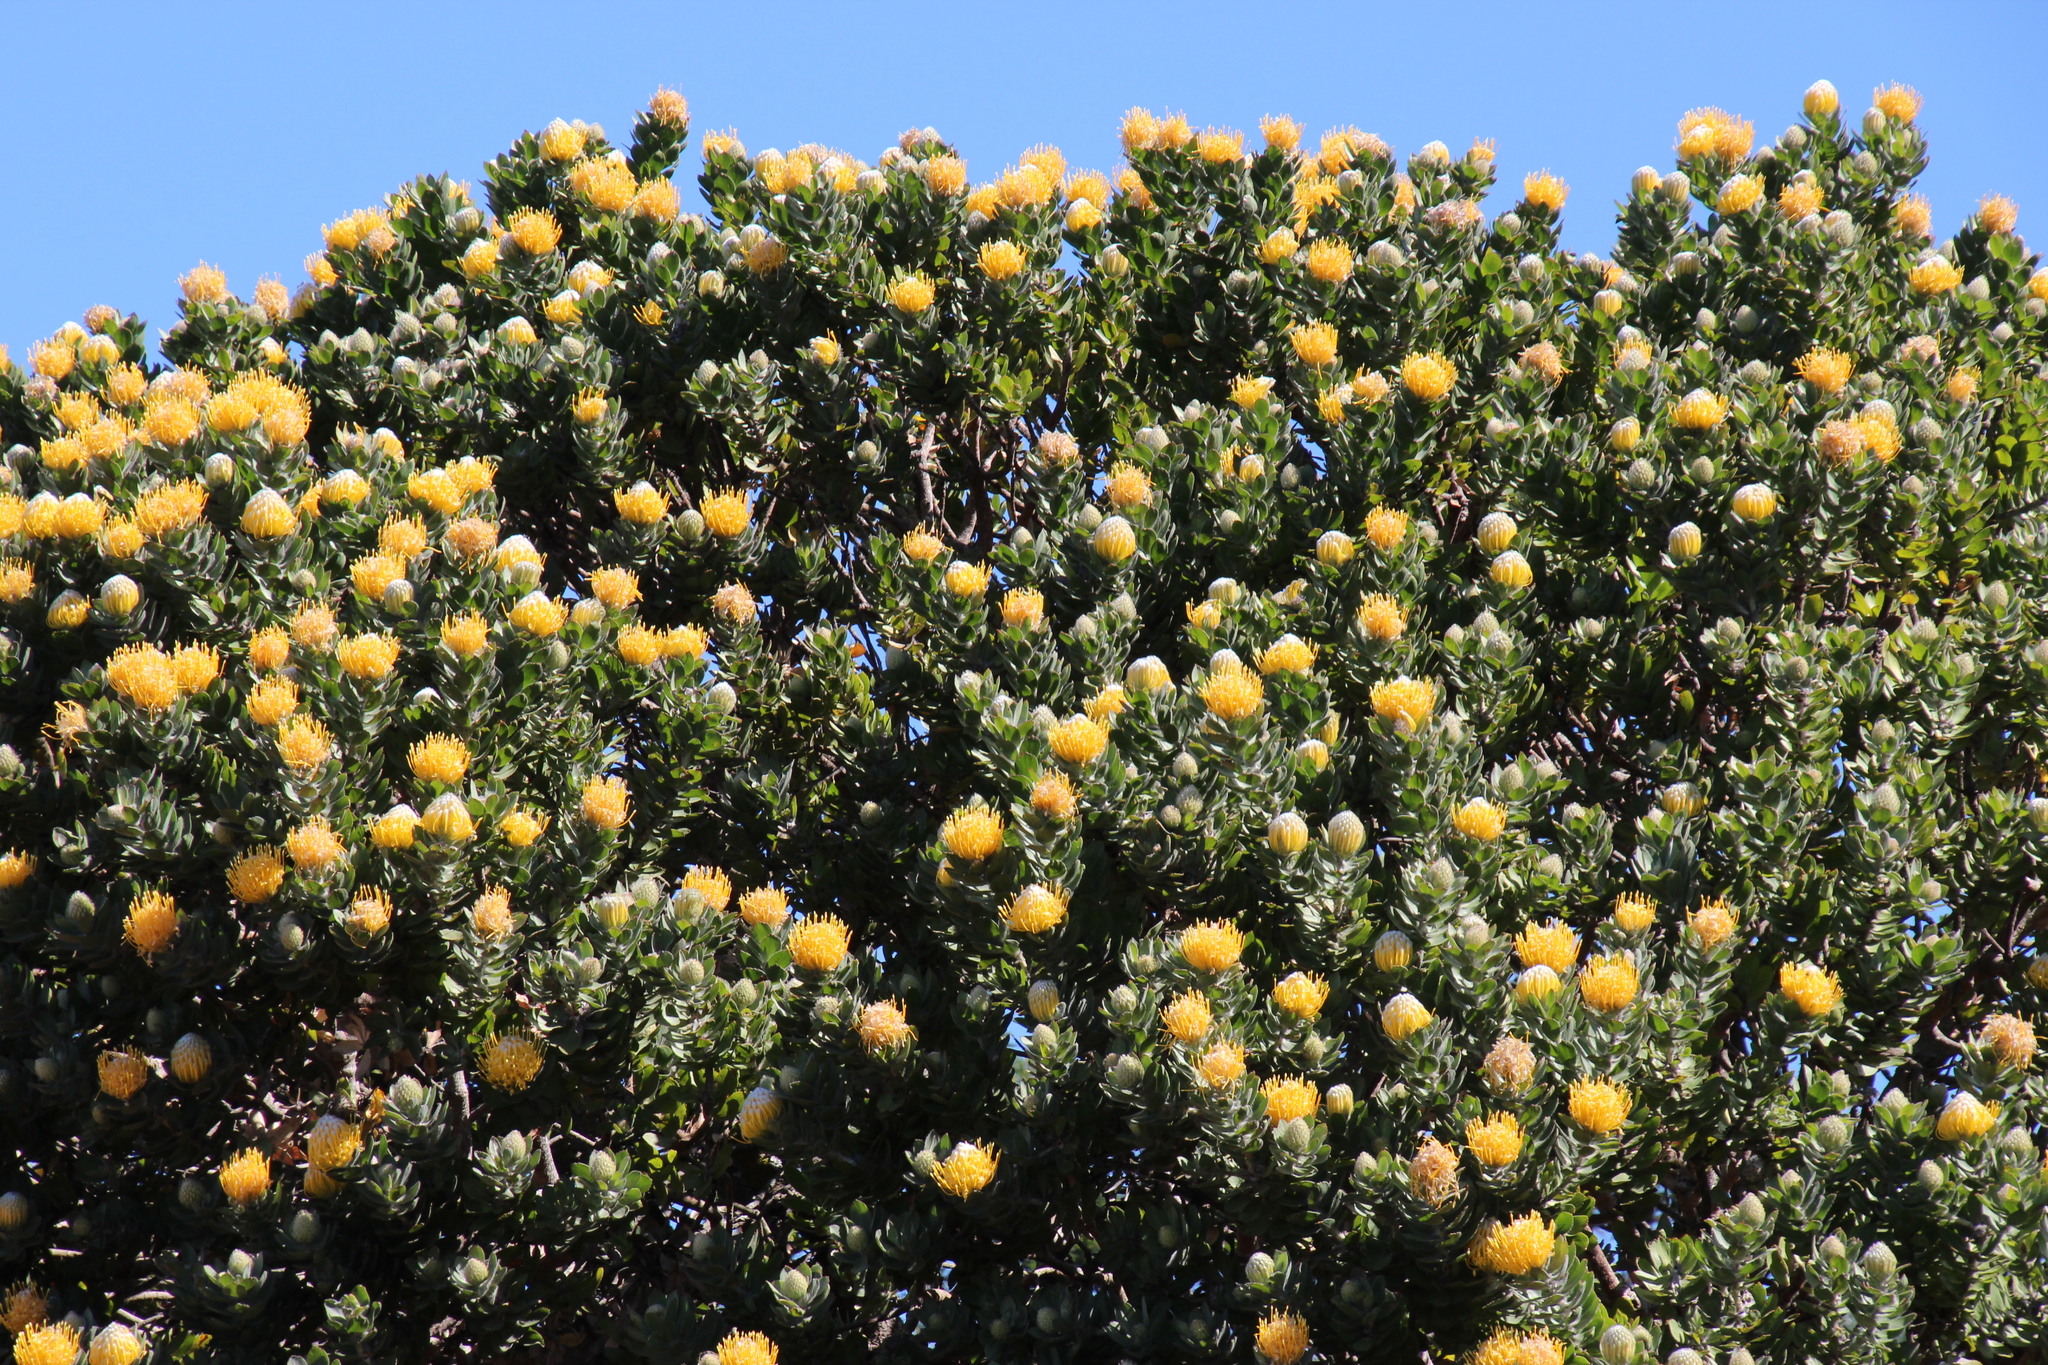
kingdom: Plantae
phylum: Tracheophyta
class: Magnoliopsida
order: Proteales
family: Proteaceae
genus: Leucospermum
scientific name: Leucospermum conocarpodendron
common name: Tree pincushion
